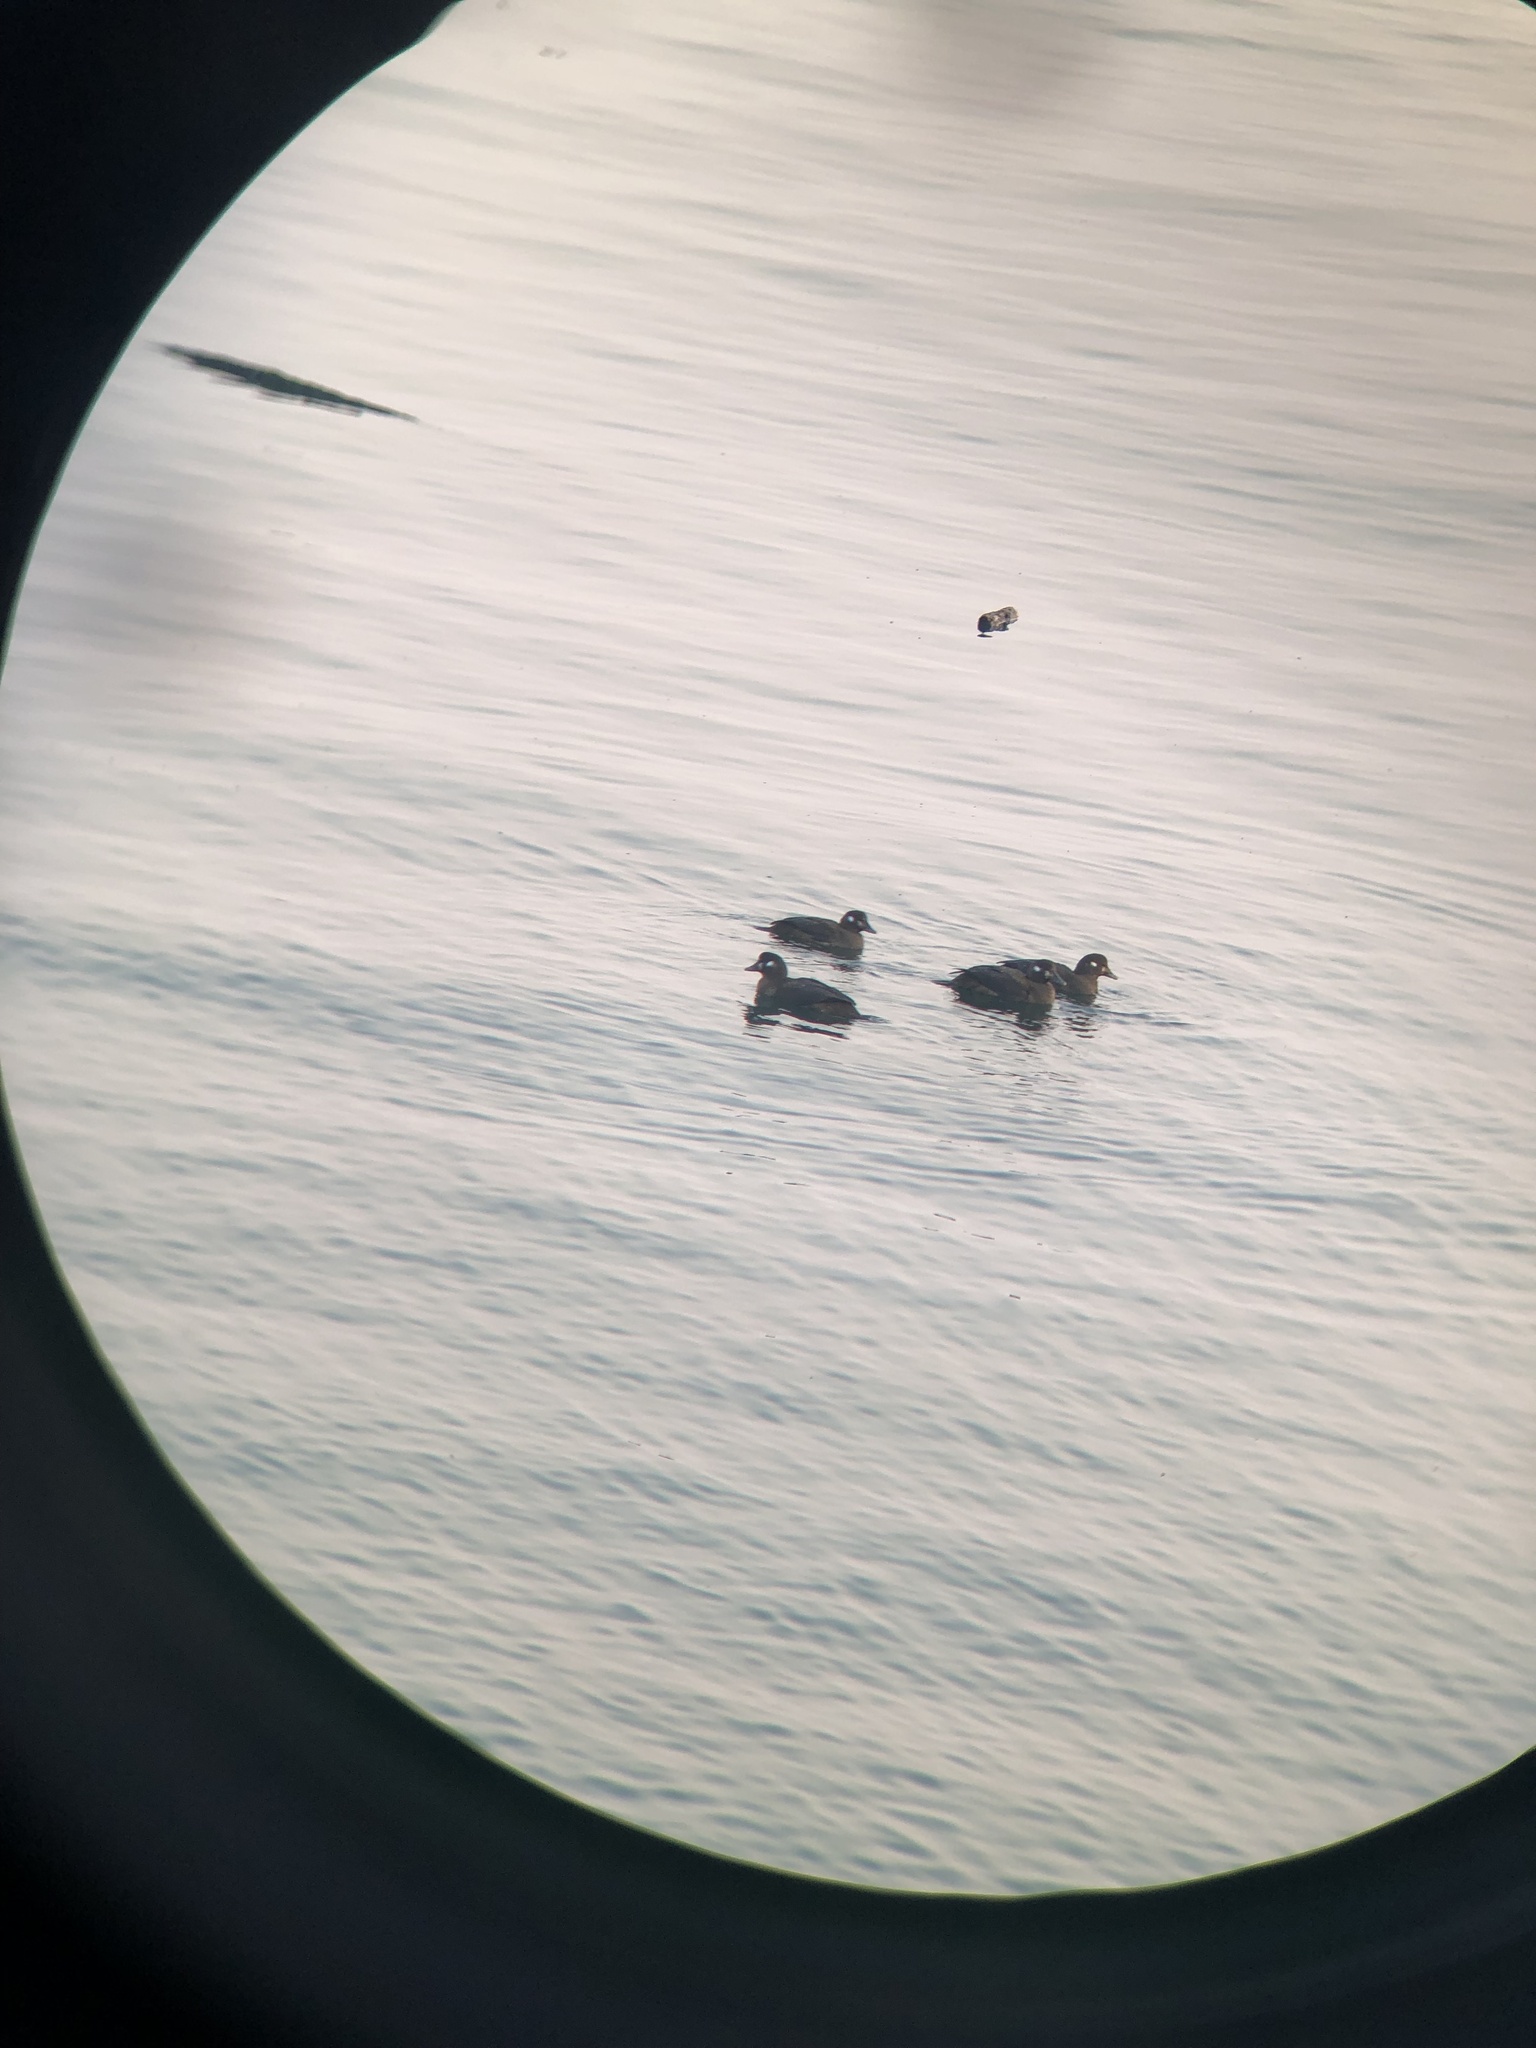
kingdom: Animalia
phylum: Chordata
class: Aves
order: Anseriformes
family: Anatidae
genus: Histrionicus
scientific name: Histrionicus histrionicus
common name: Harlequin duck
